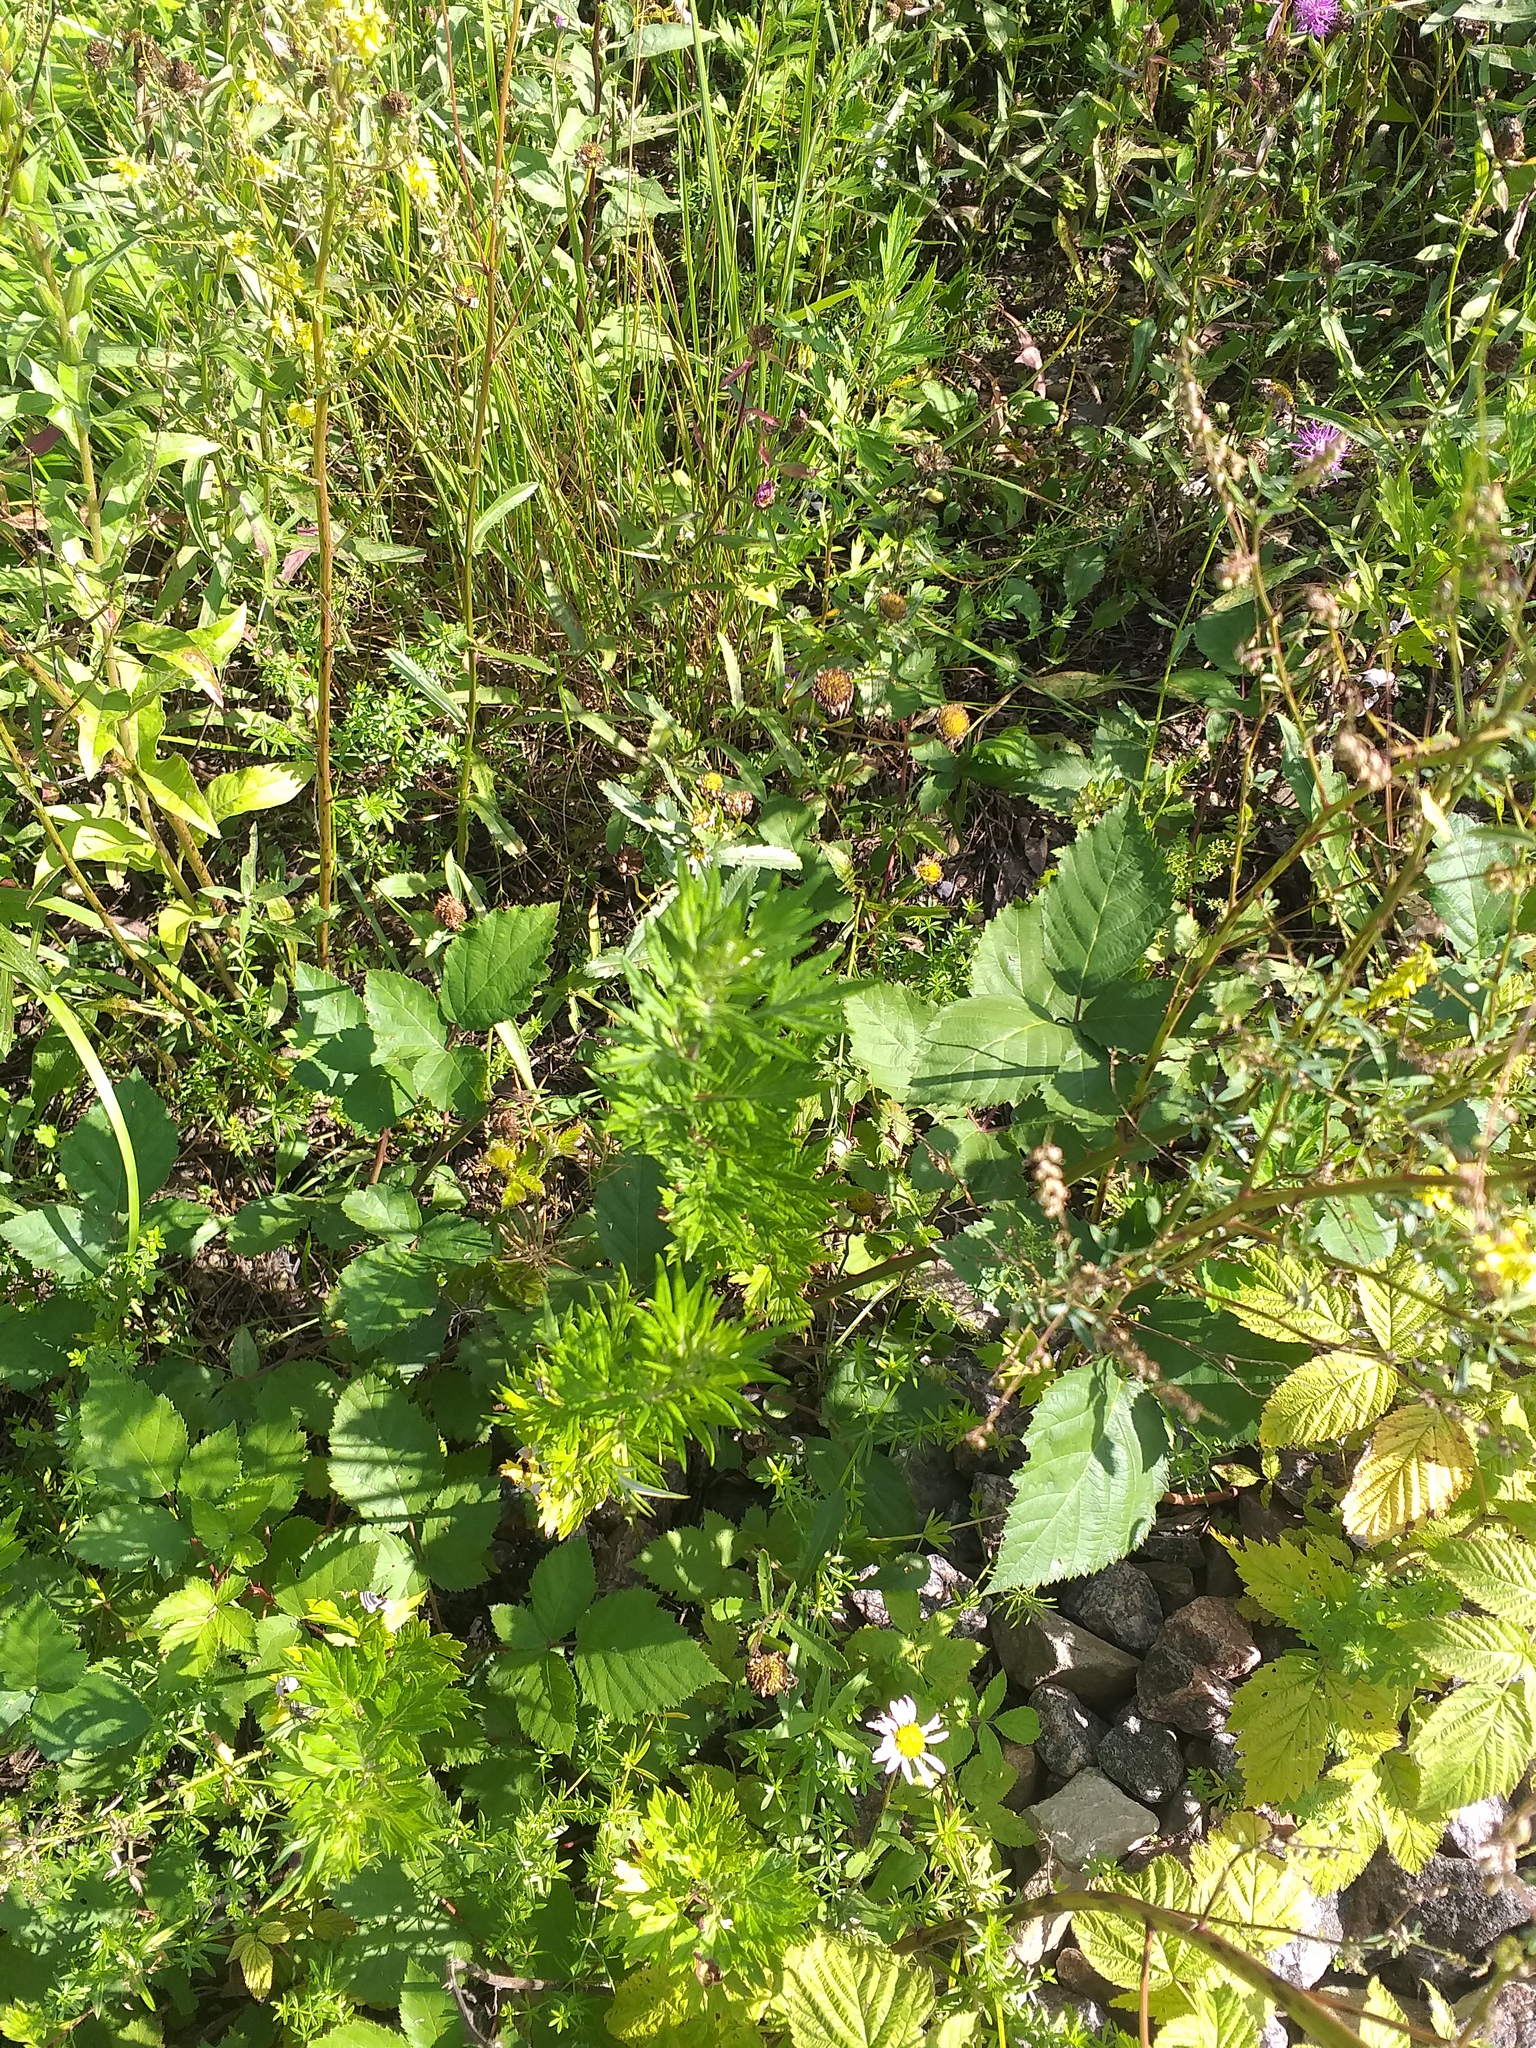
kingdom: Plantae
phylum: Tracheophyta
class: Magnoliopsida
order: Asterales
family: Asteraceae
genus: Artemisia
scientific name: Artemisia vulgaris
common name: Mugwort
